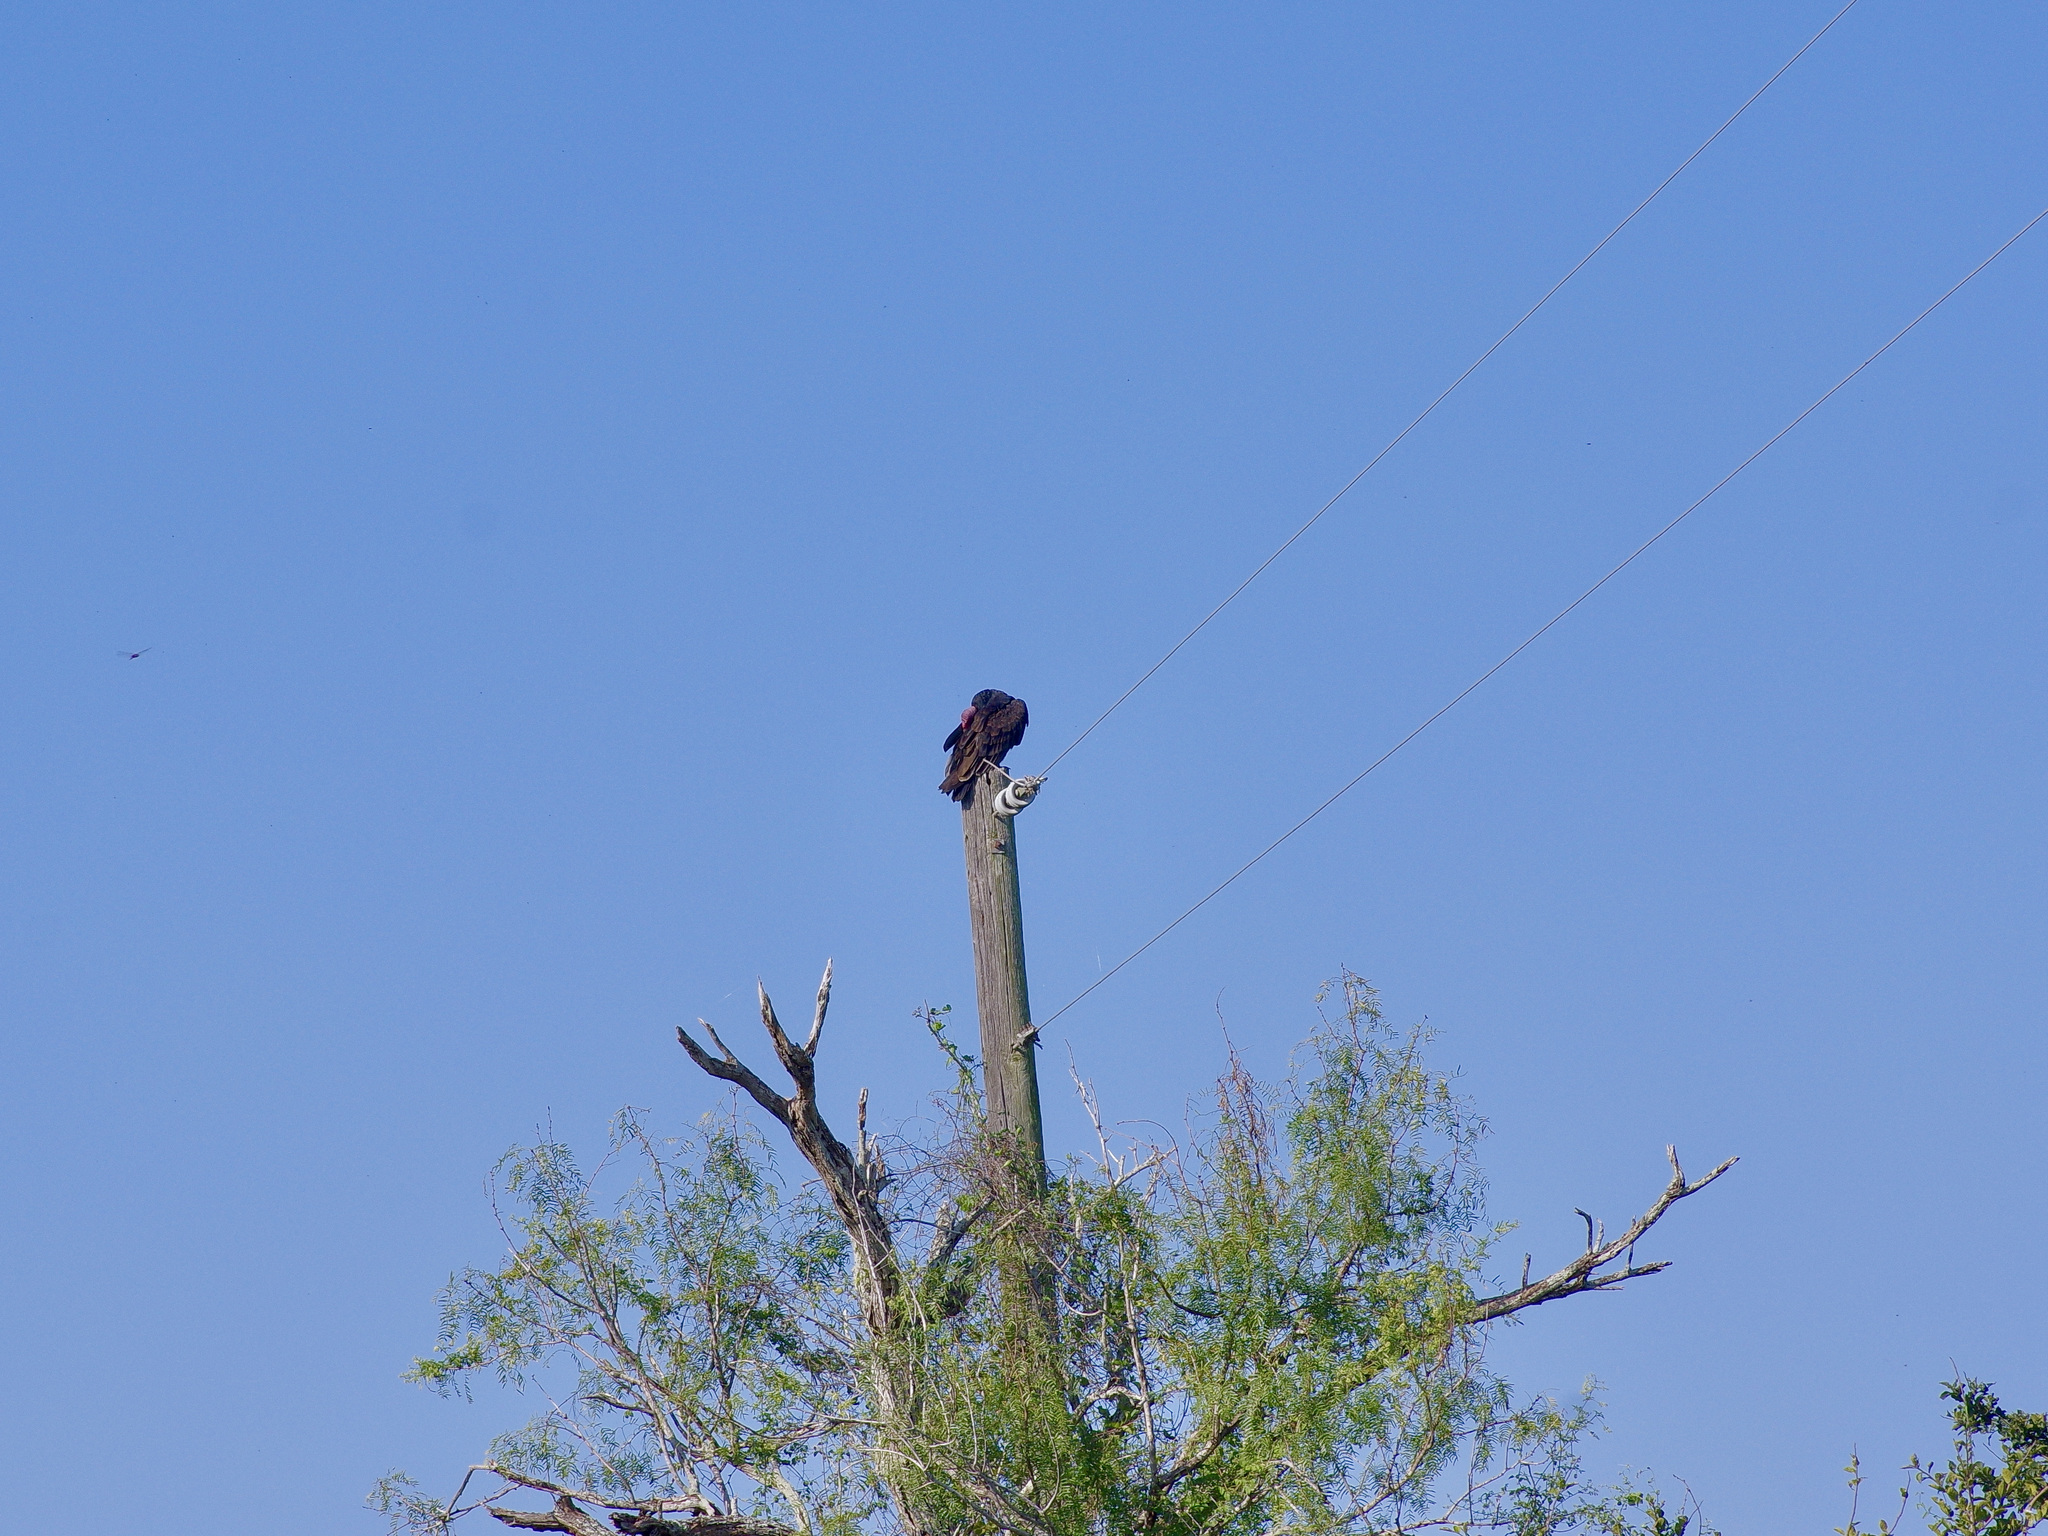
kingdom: Animalia
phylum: Chordata
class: Aves
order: Accipitriformes
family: Cathartidae
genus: Cathartes
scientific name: Cathartes aura
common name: Turkey vulture
